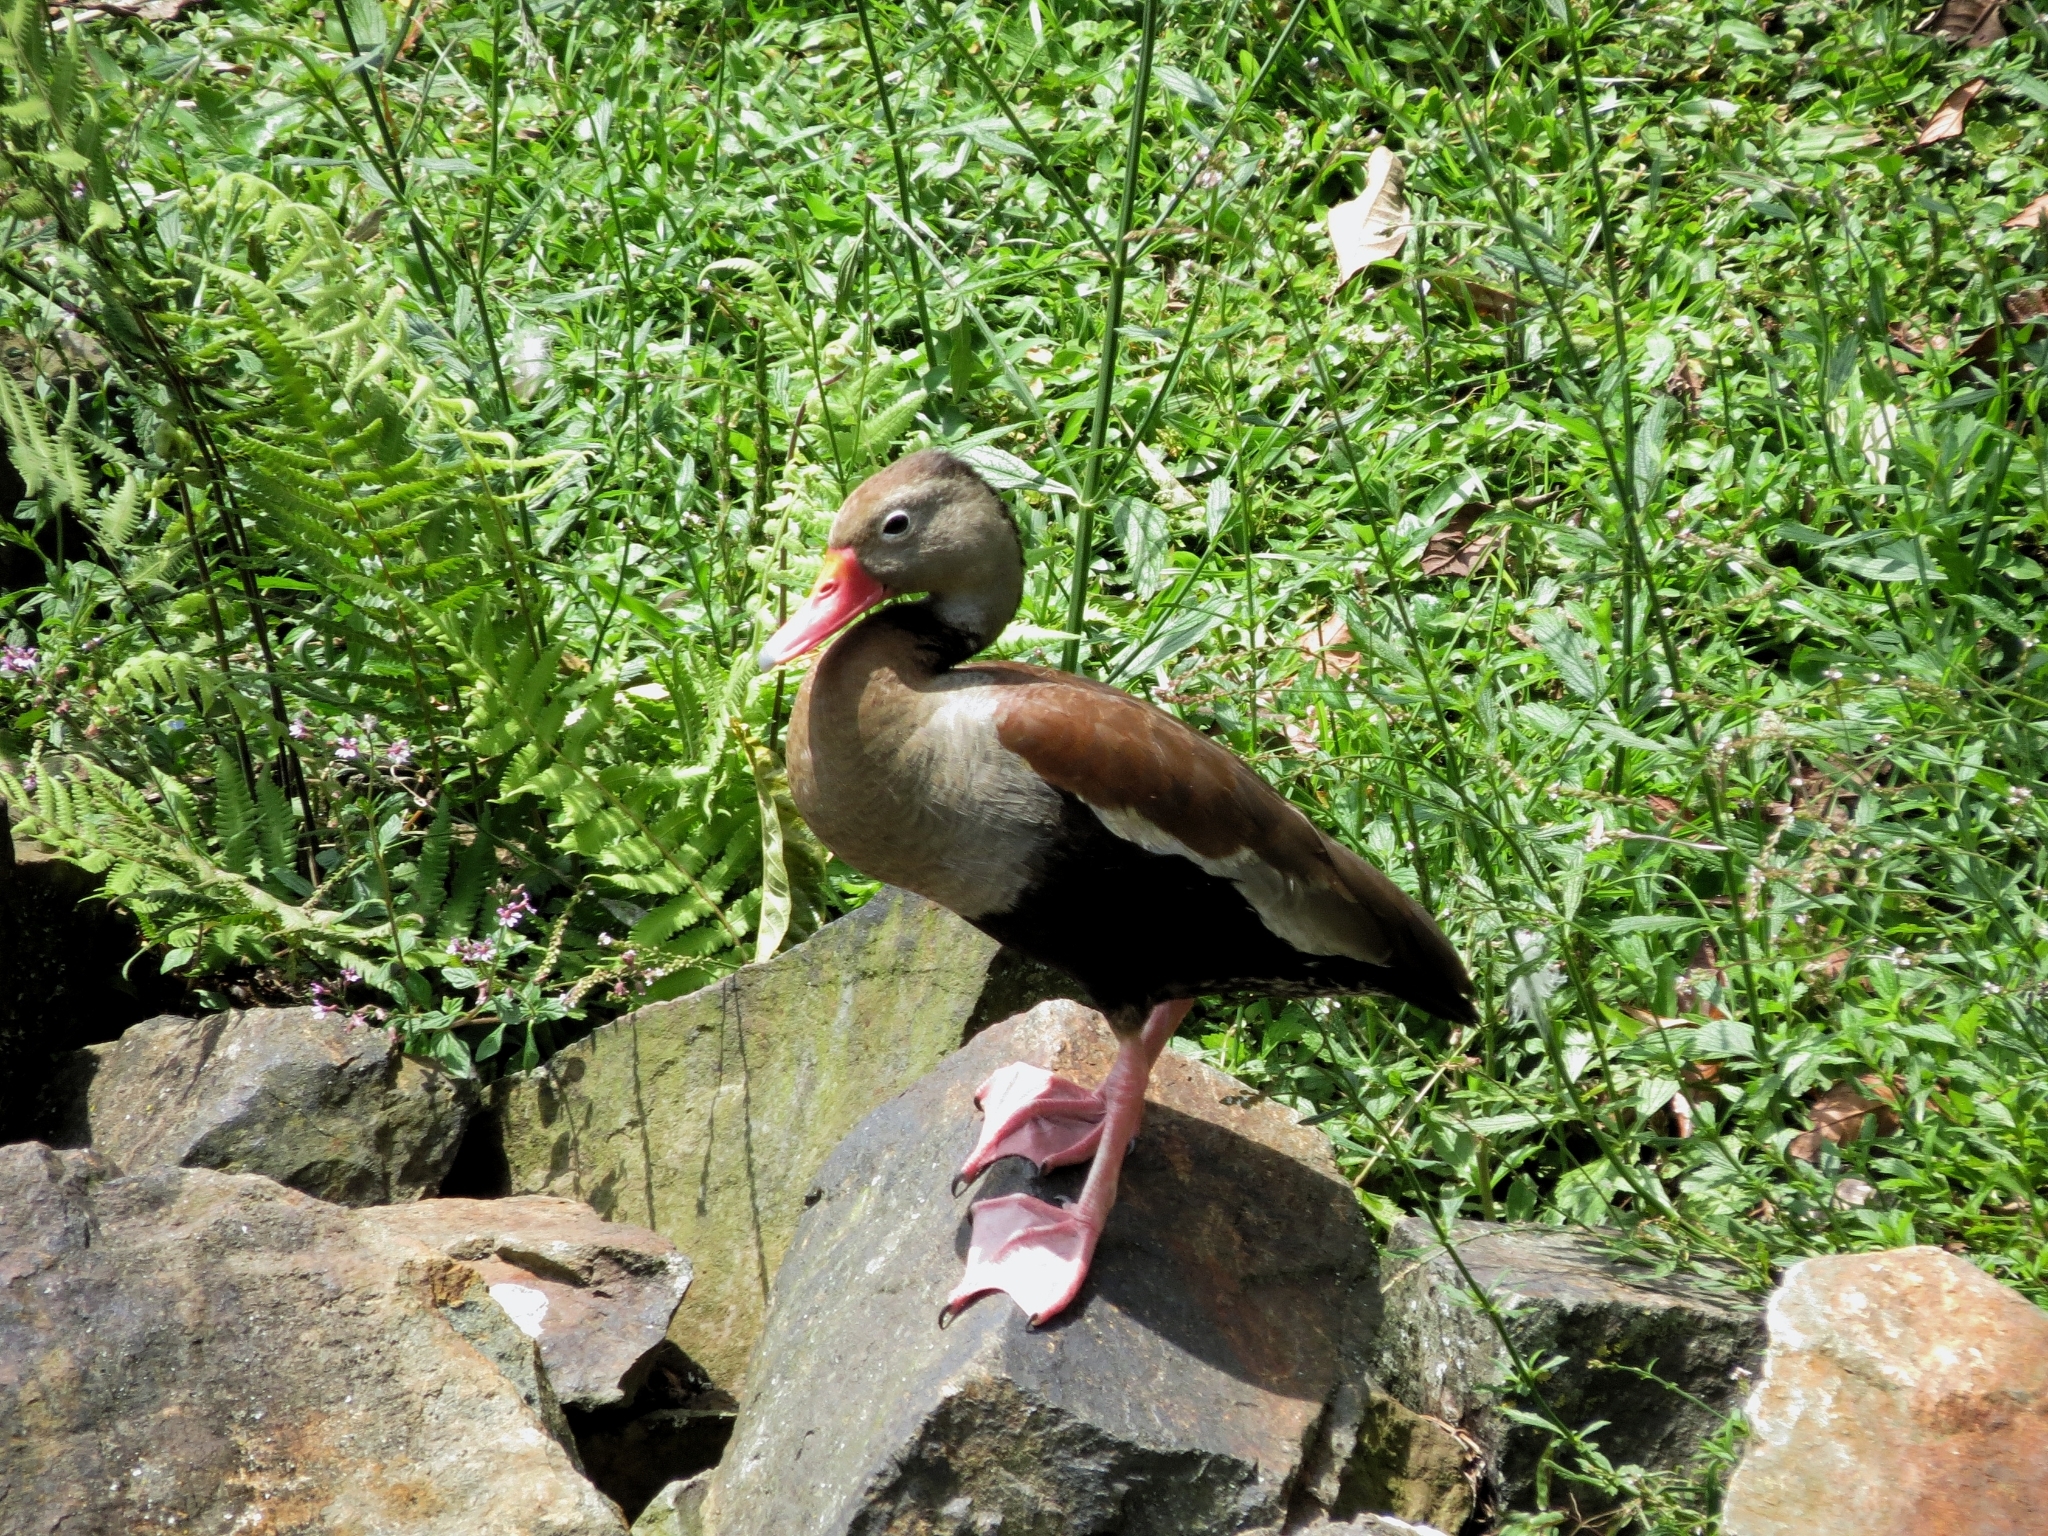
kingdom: Animalia
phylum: Chordata
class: Aves
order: Anseriformes
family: Anatidae
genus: Dendrocygna
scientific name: Dendrocygna autumnalis
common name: Black-bellied whistling duck
